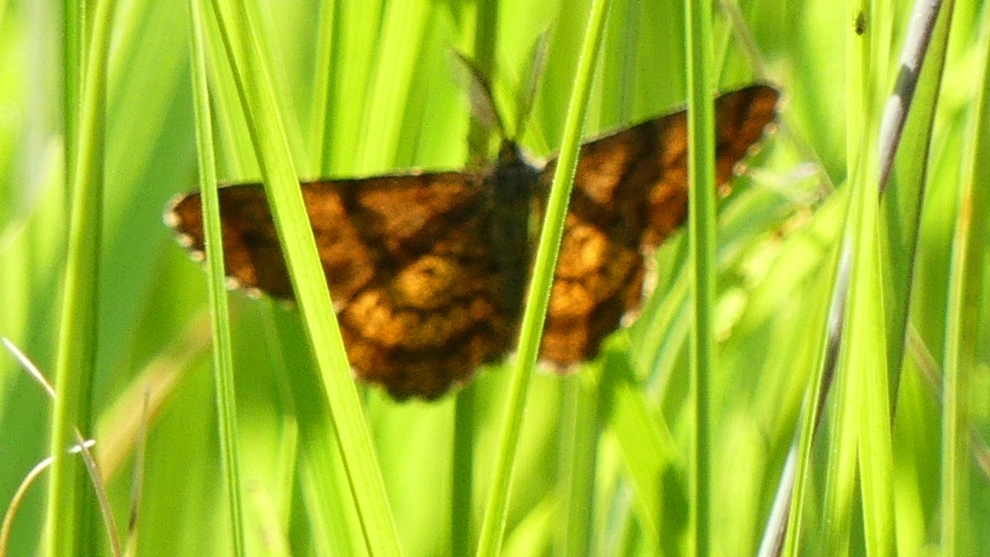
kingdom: Animalia
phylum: Arthropoda
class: Insecta
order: Lepidoptera
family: Geometridae
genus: Ematurga
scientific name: Ematurga amitaria
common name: Cranberry spanworm moth
